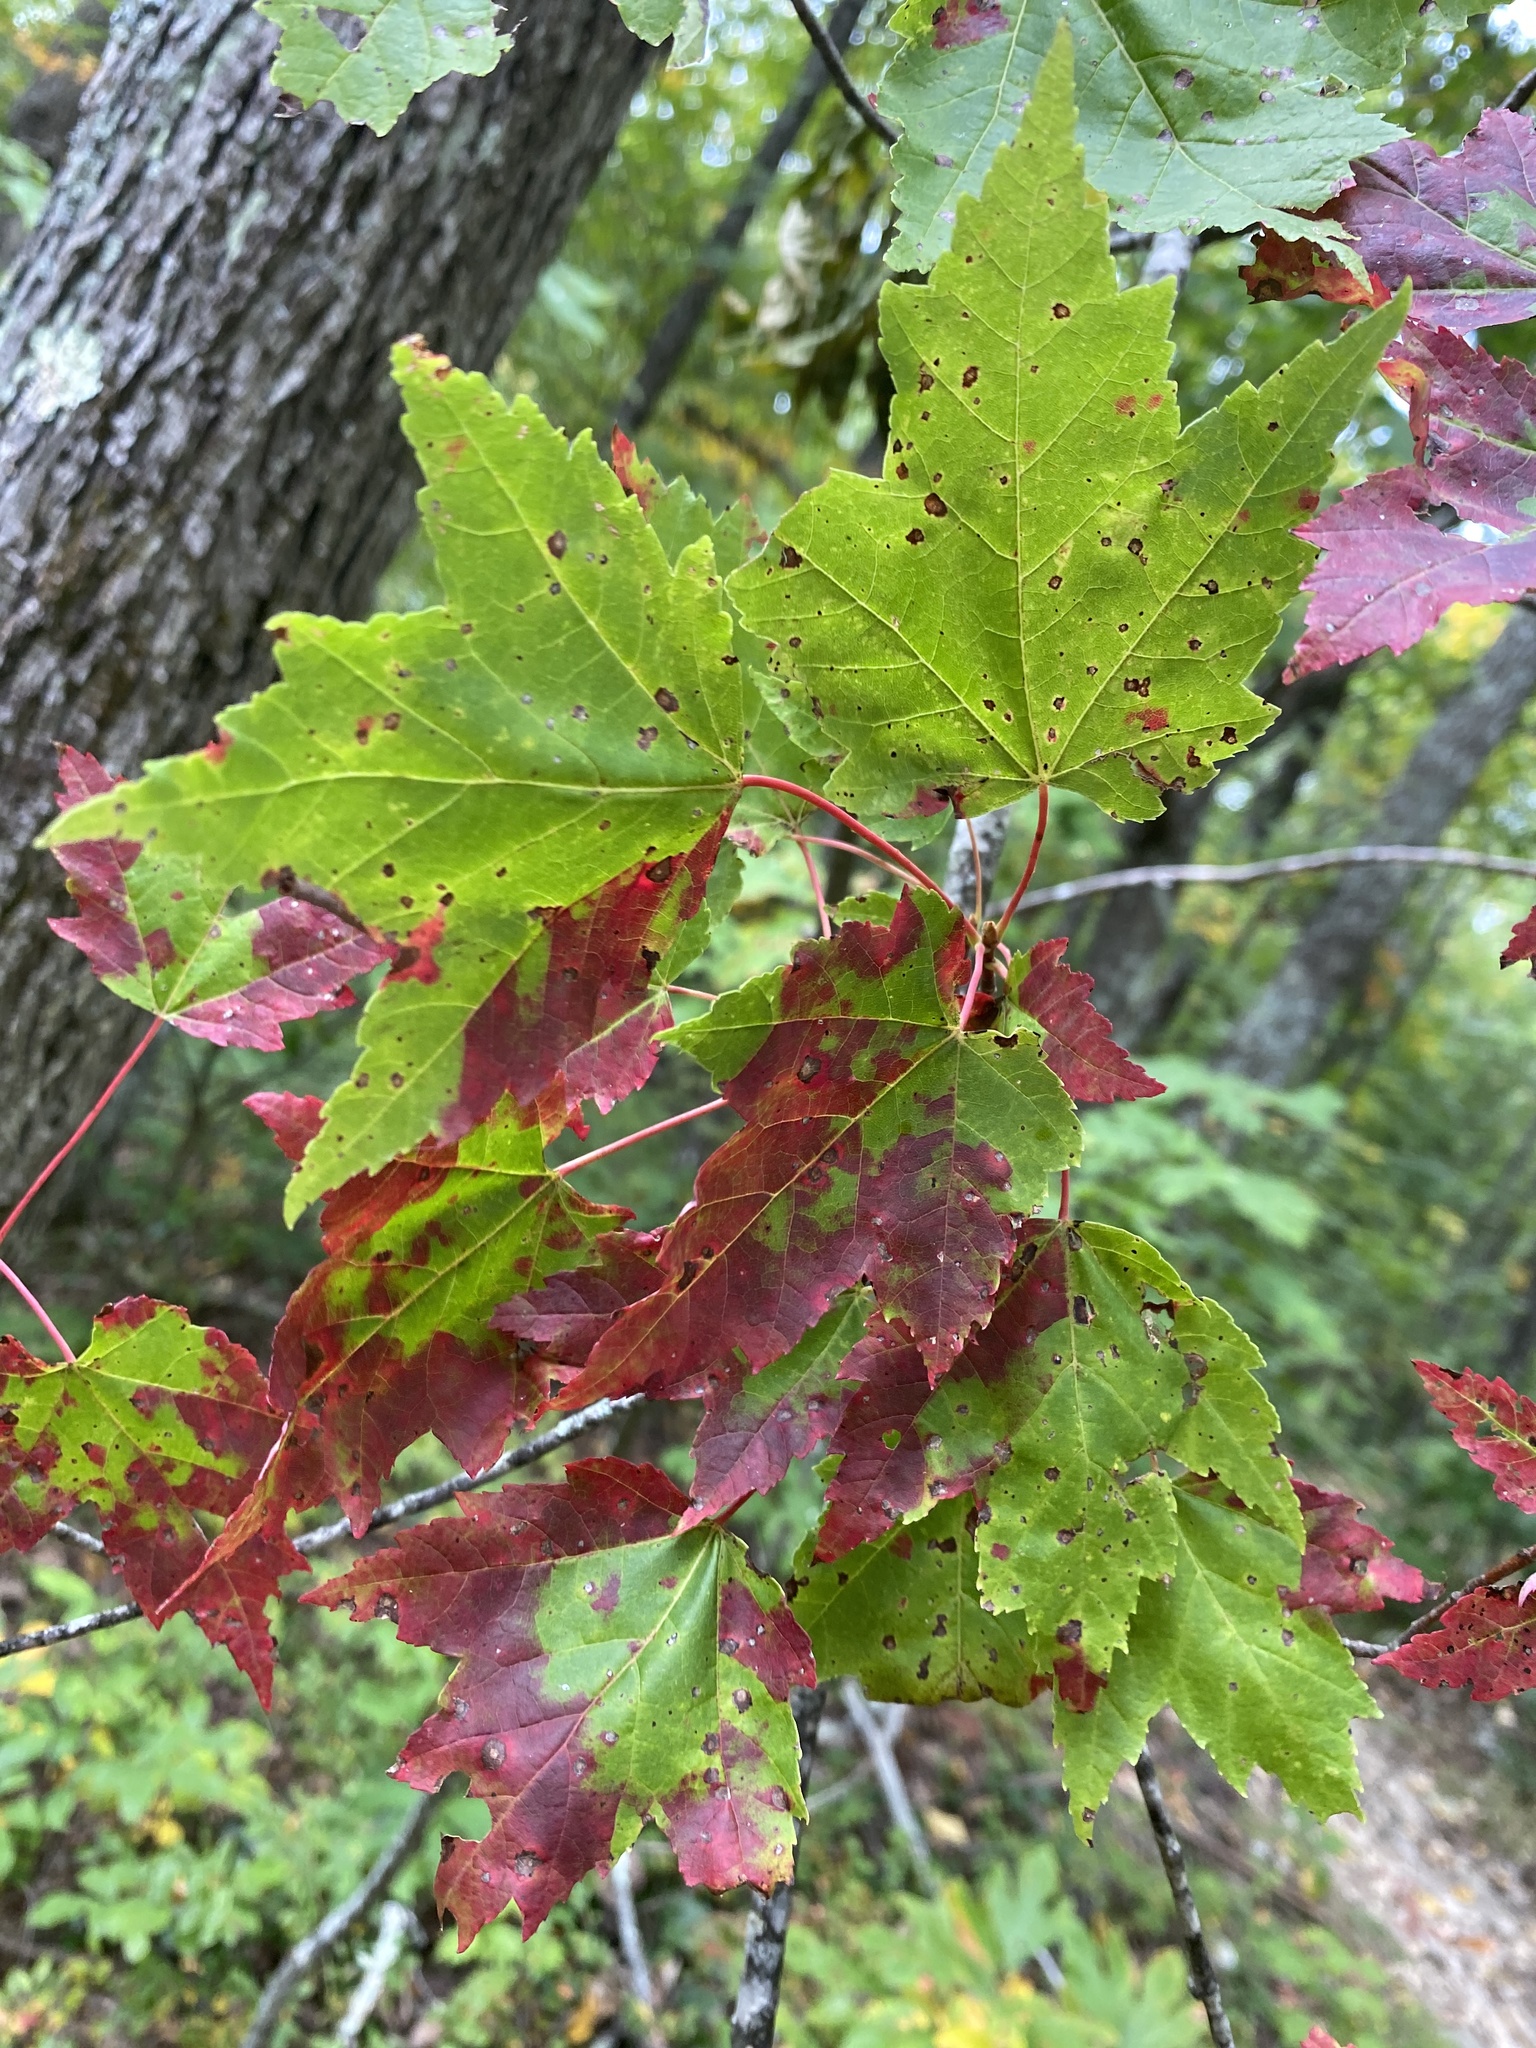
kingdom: Plantae
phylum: Tracheophyta
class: Magnoliopsida
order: Sapindales
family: Sapindaceae
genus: Acer
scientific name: Acer rubrum
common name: Red maple
